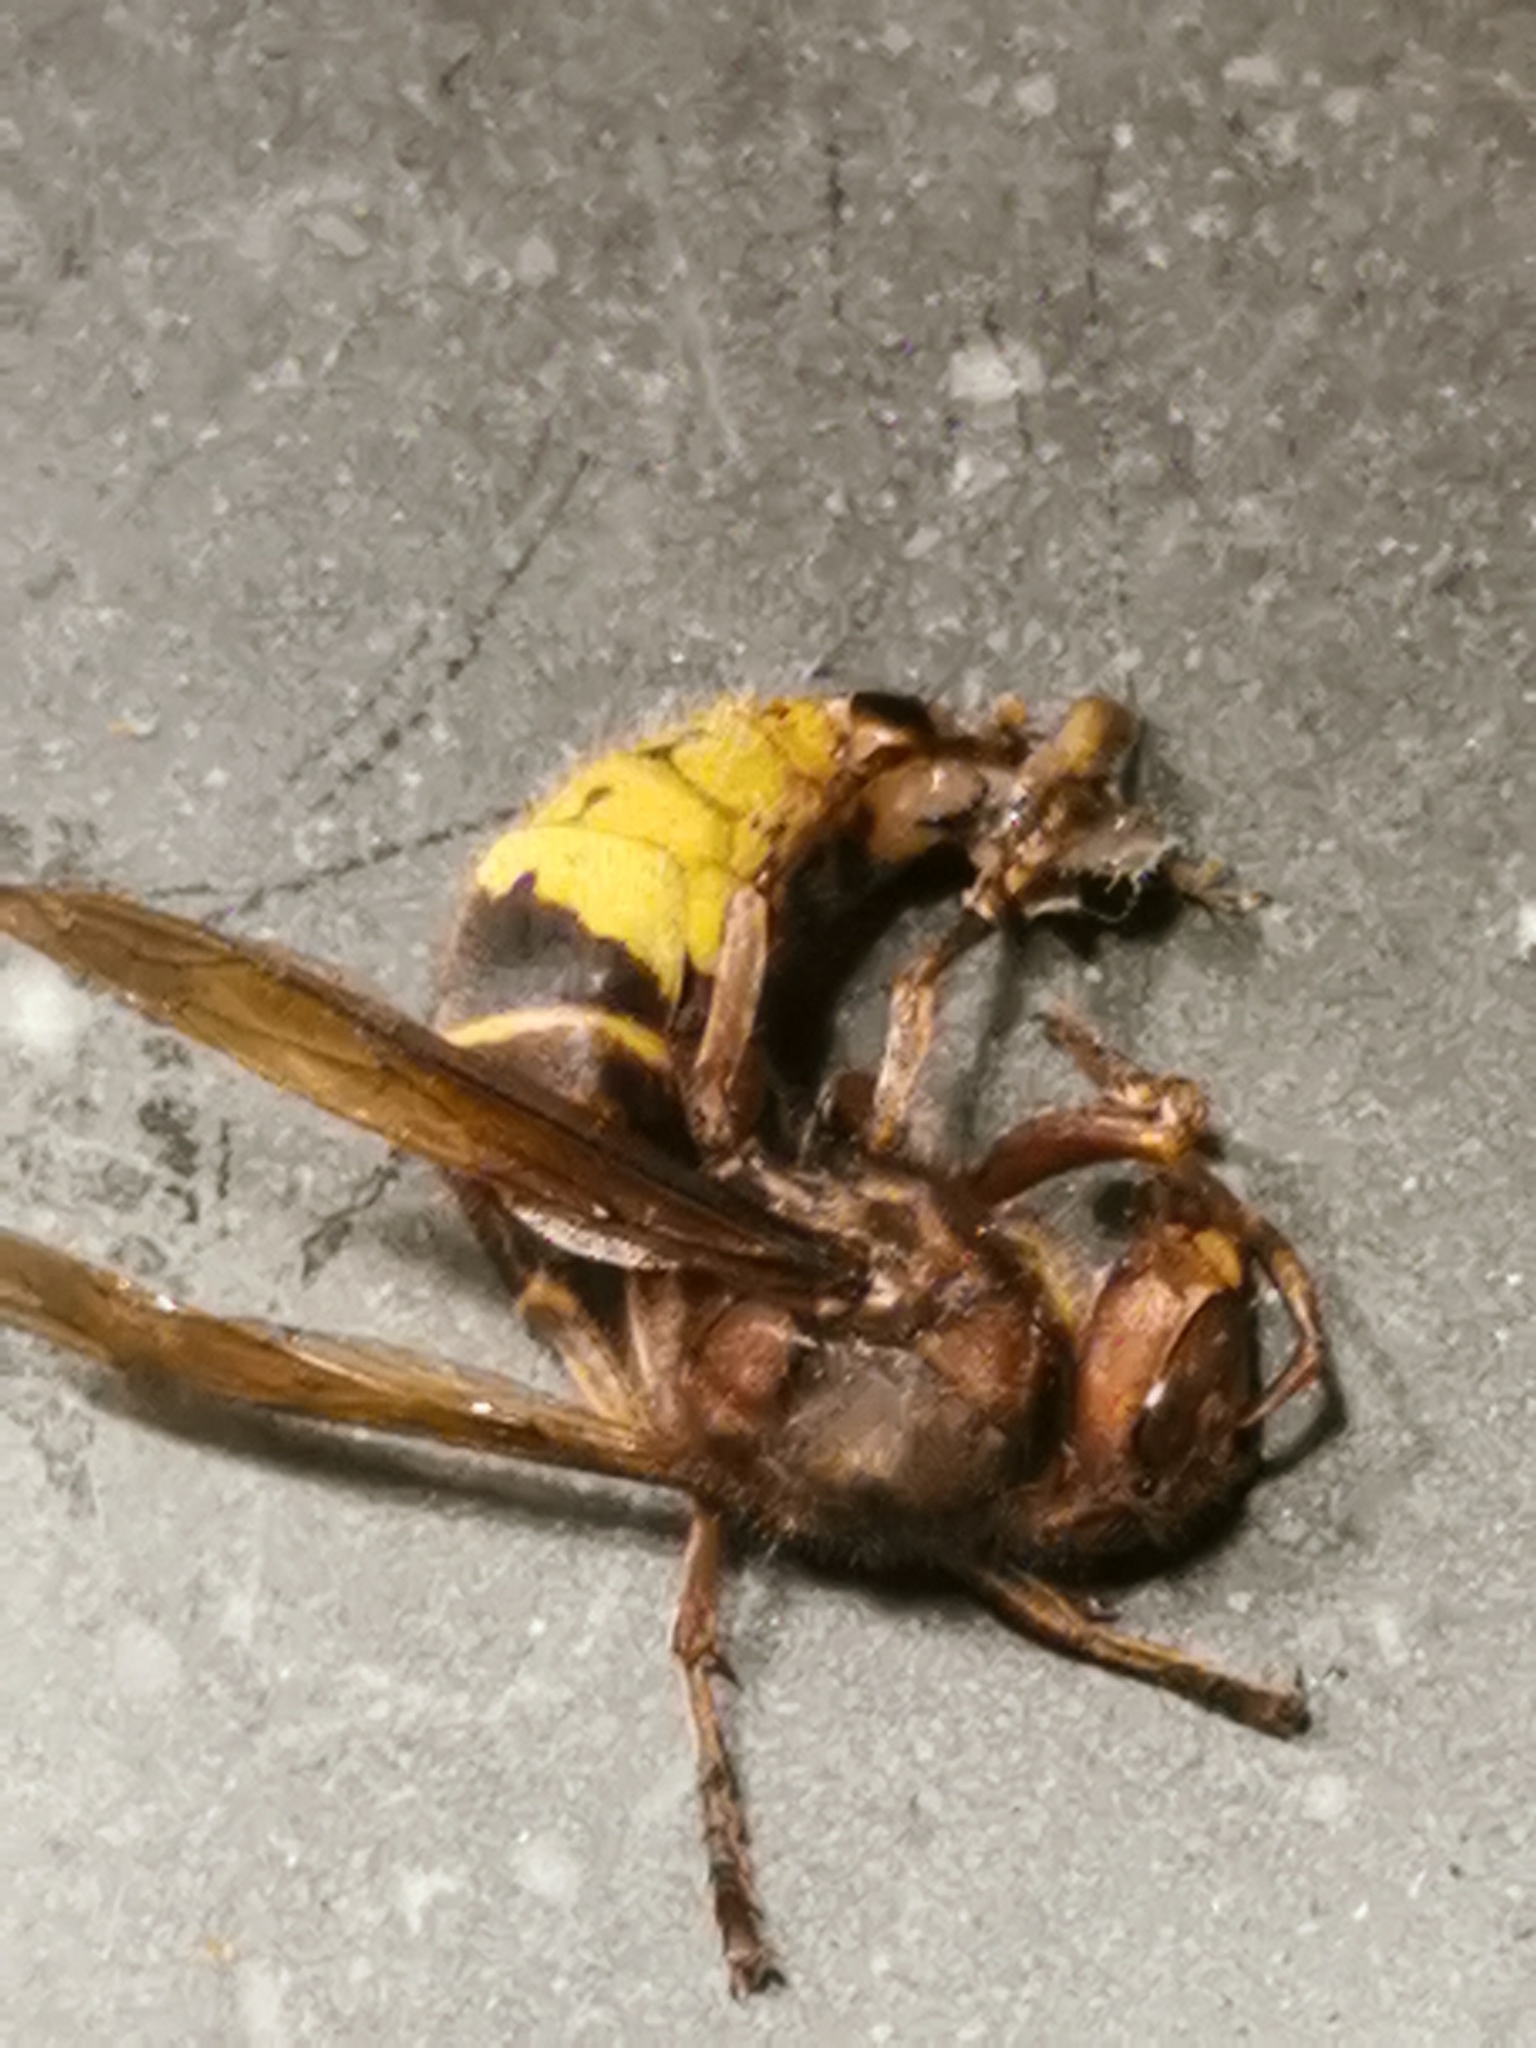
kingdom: Animalia
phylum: Arthropoda
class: Insecta
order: Hymenoptera
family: Vespidae
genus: Vespa
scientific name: Vespa crabro
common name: Hornet
